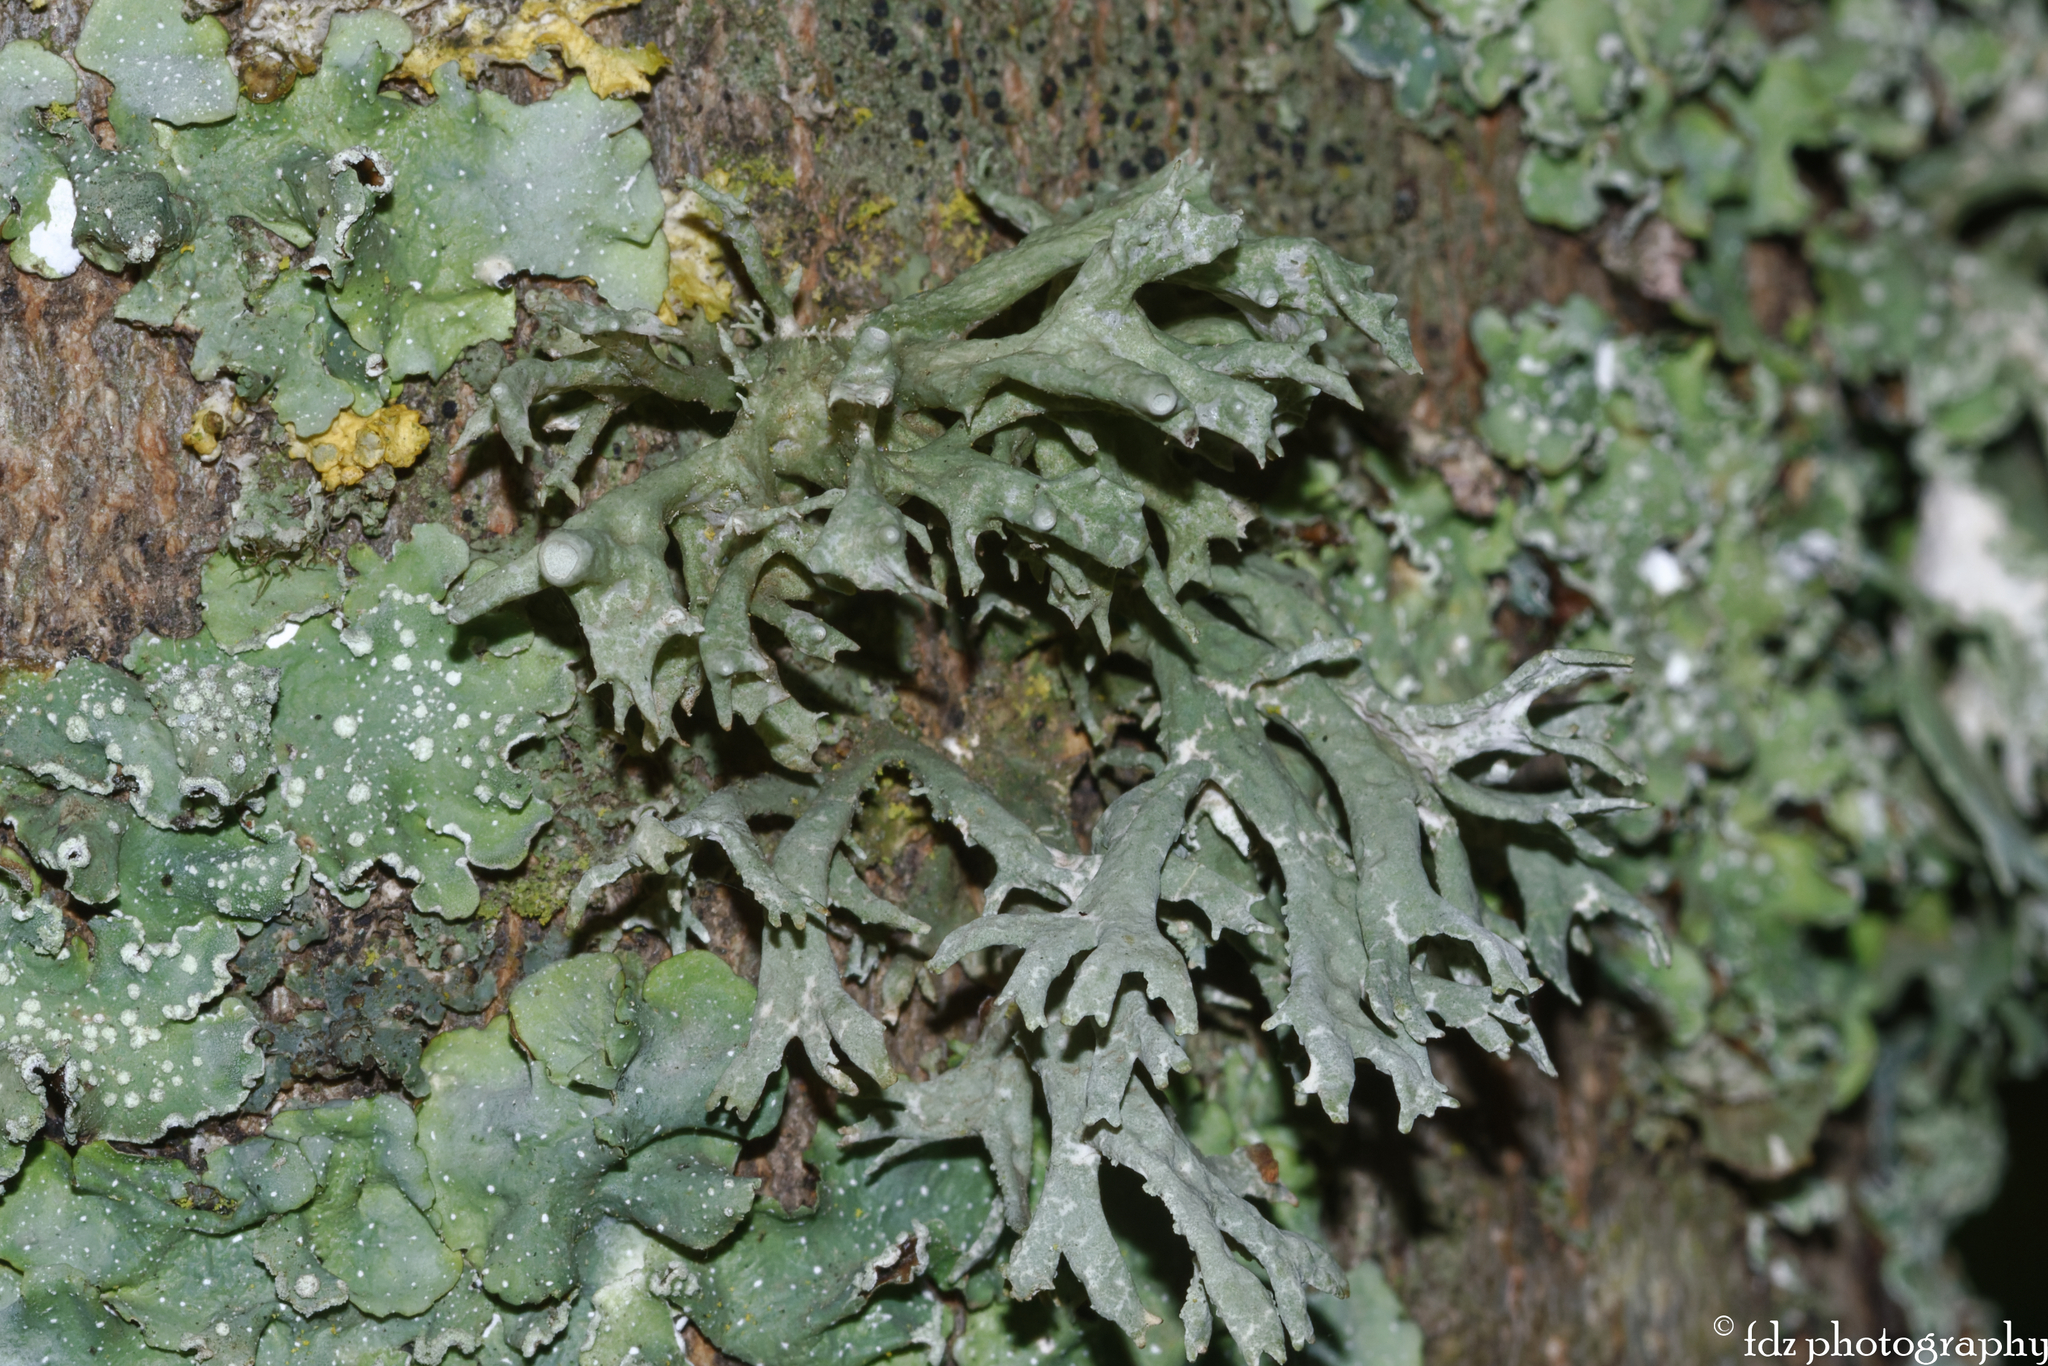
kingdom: Fungi
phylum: Ascomycota
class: Lecanoromycetes
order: Lecanorales
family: Parmeliaceae
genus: Evernia
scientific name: Evernia prunastri
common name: Oak moss
